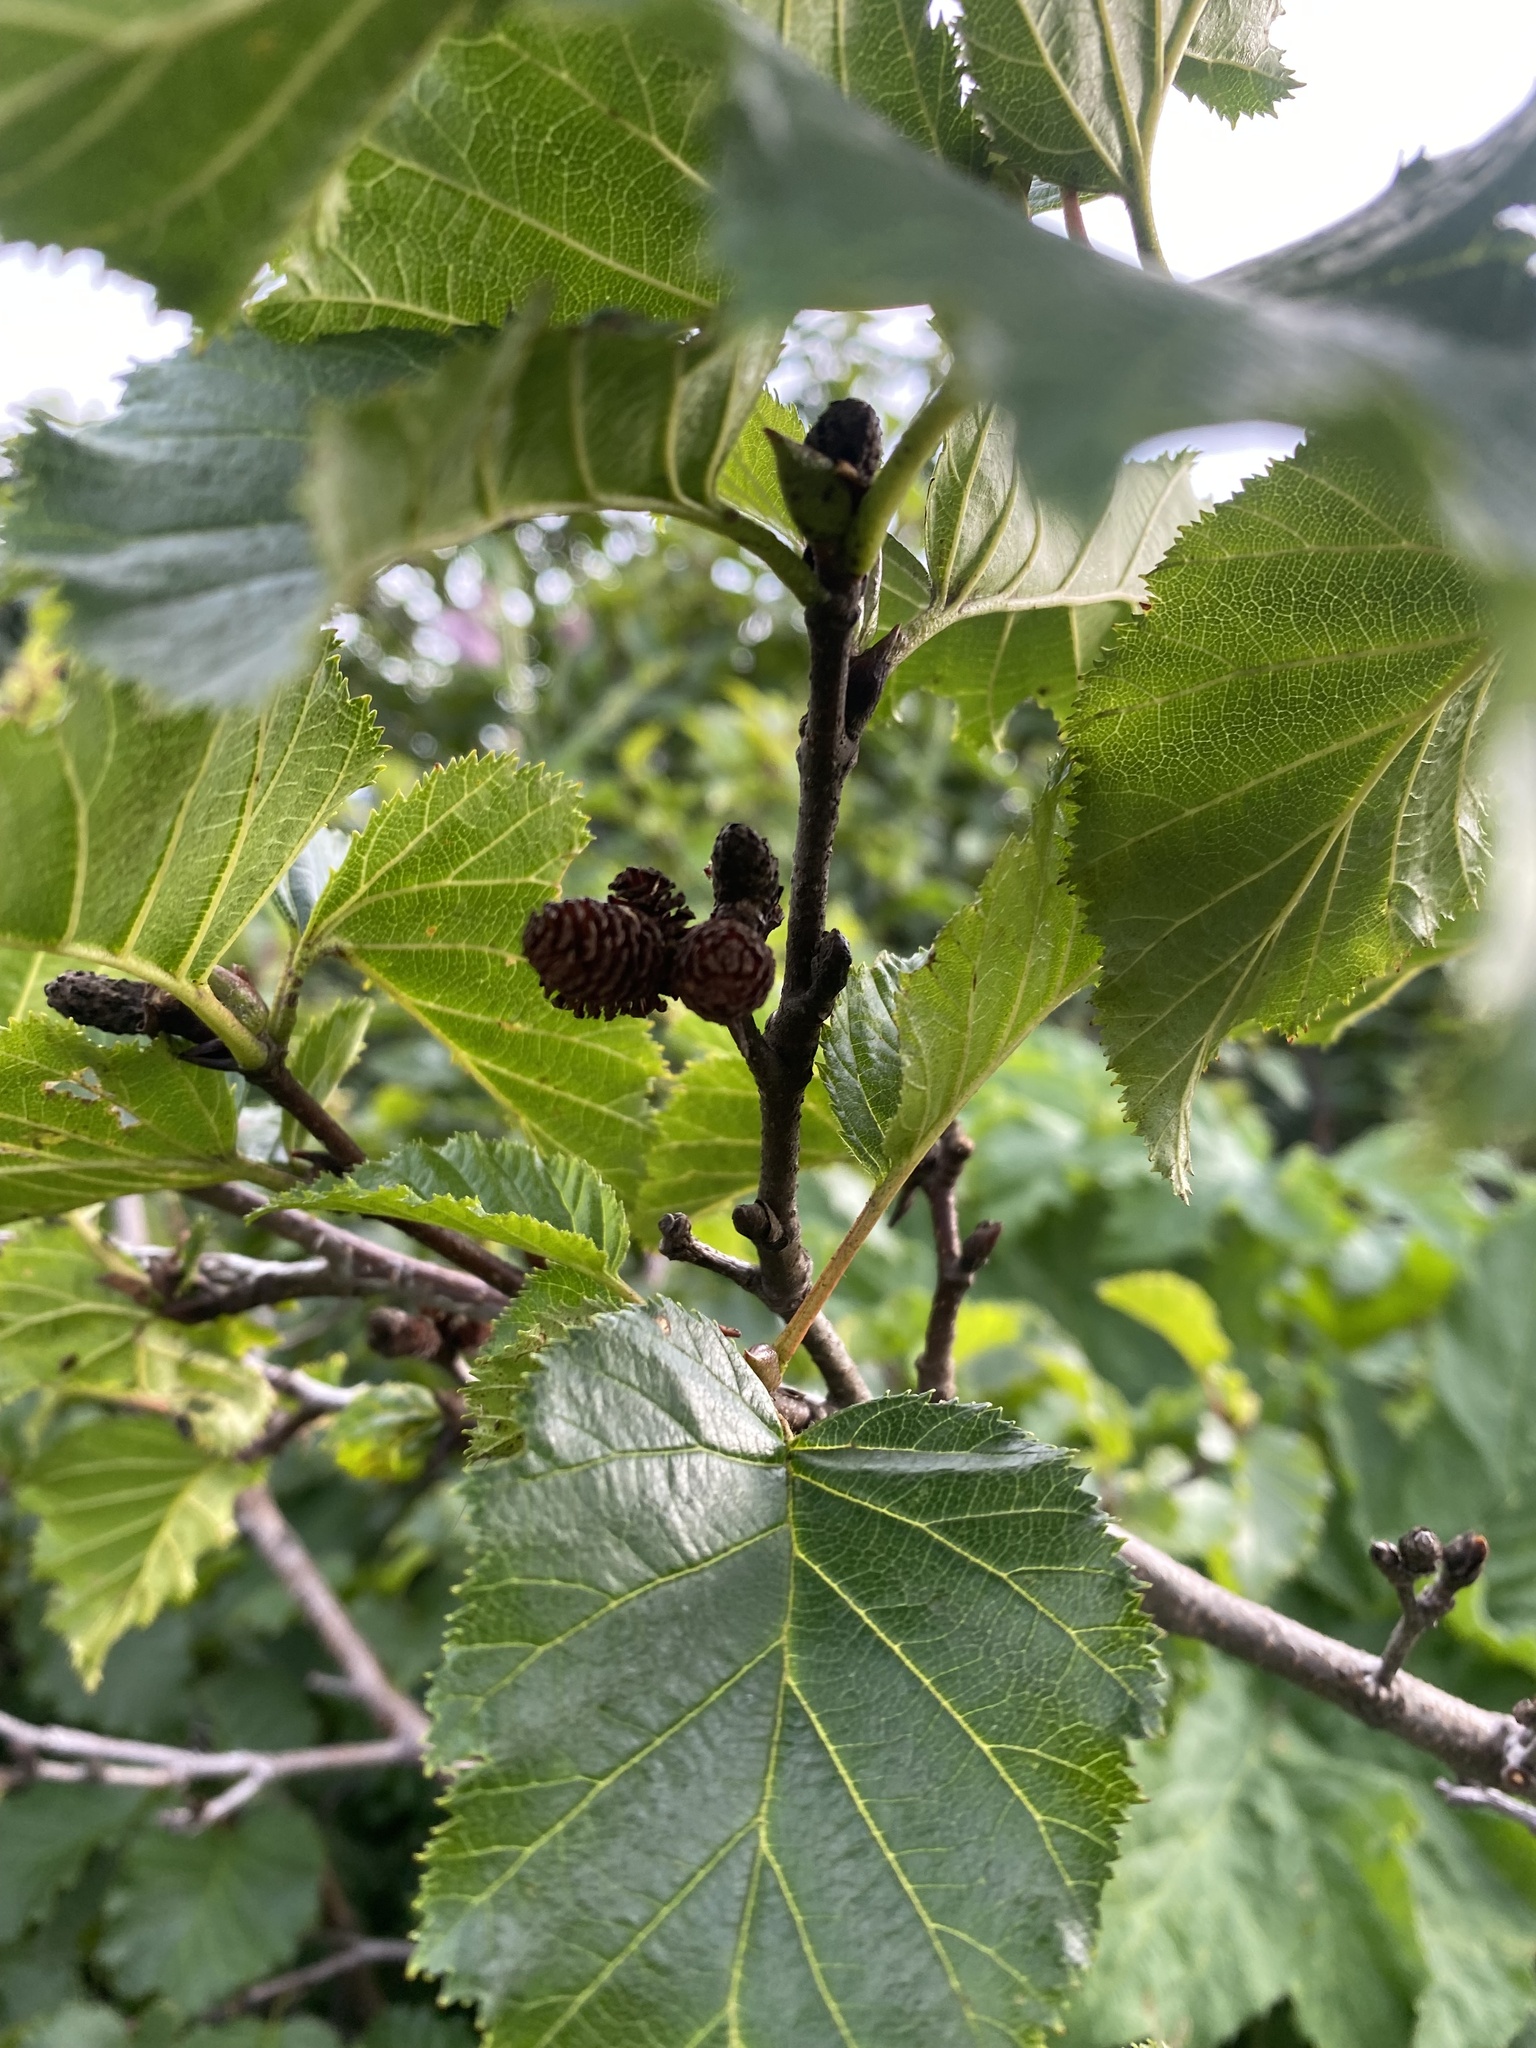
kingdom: Plantae
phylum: Tracheophyta
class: Magnoliopsida
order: Fagales
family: Betulaceae
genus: Alnus
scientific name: Alnus alnobetula
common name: Green alder
